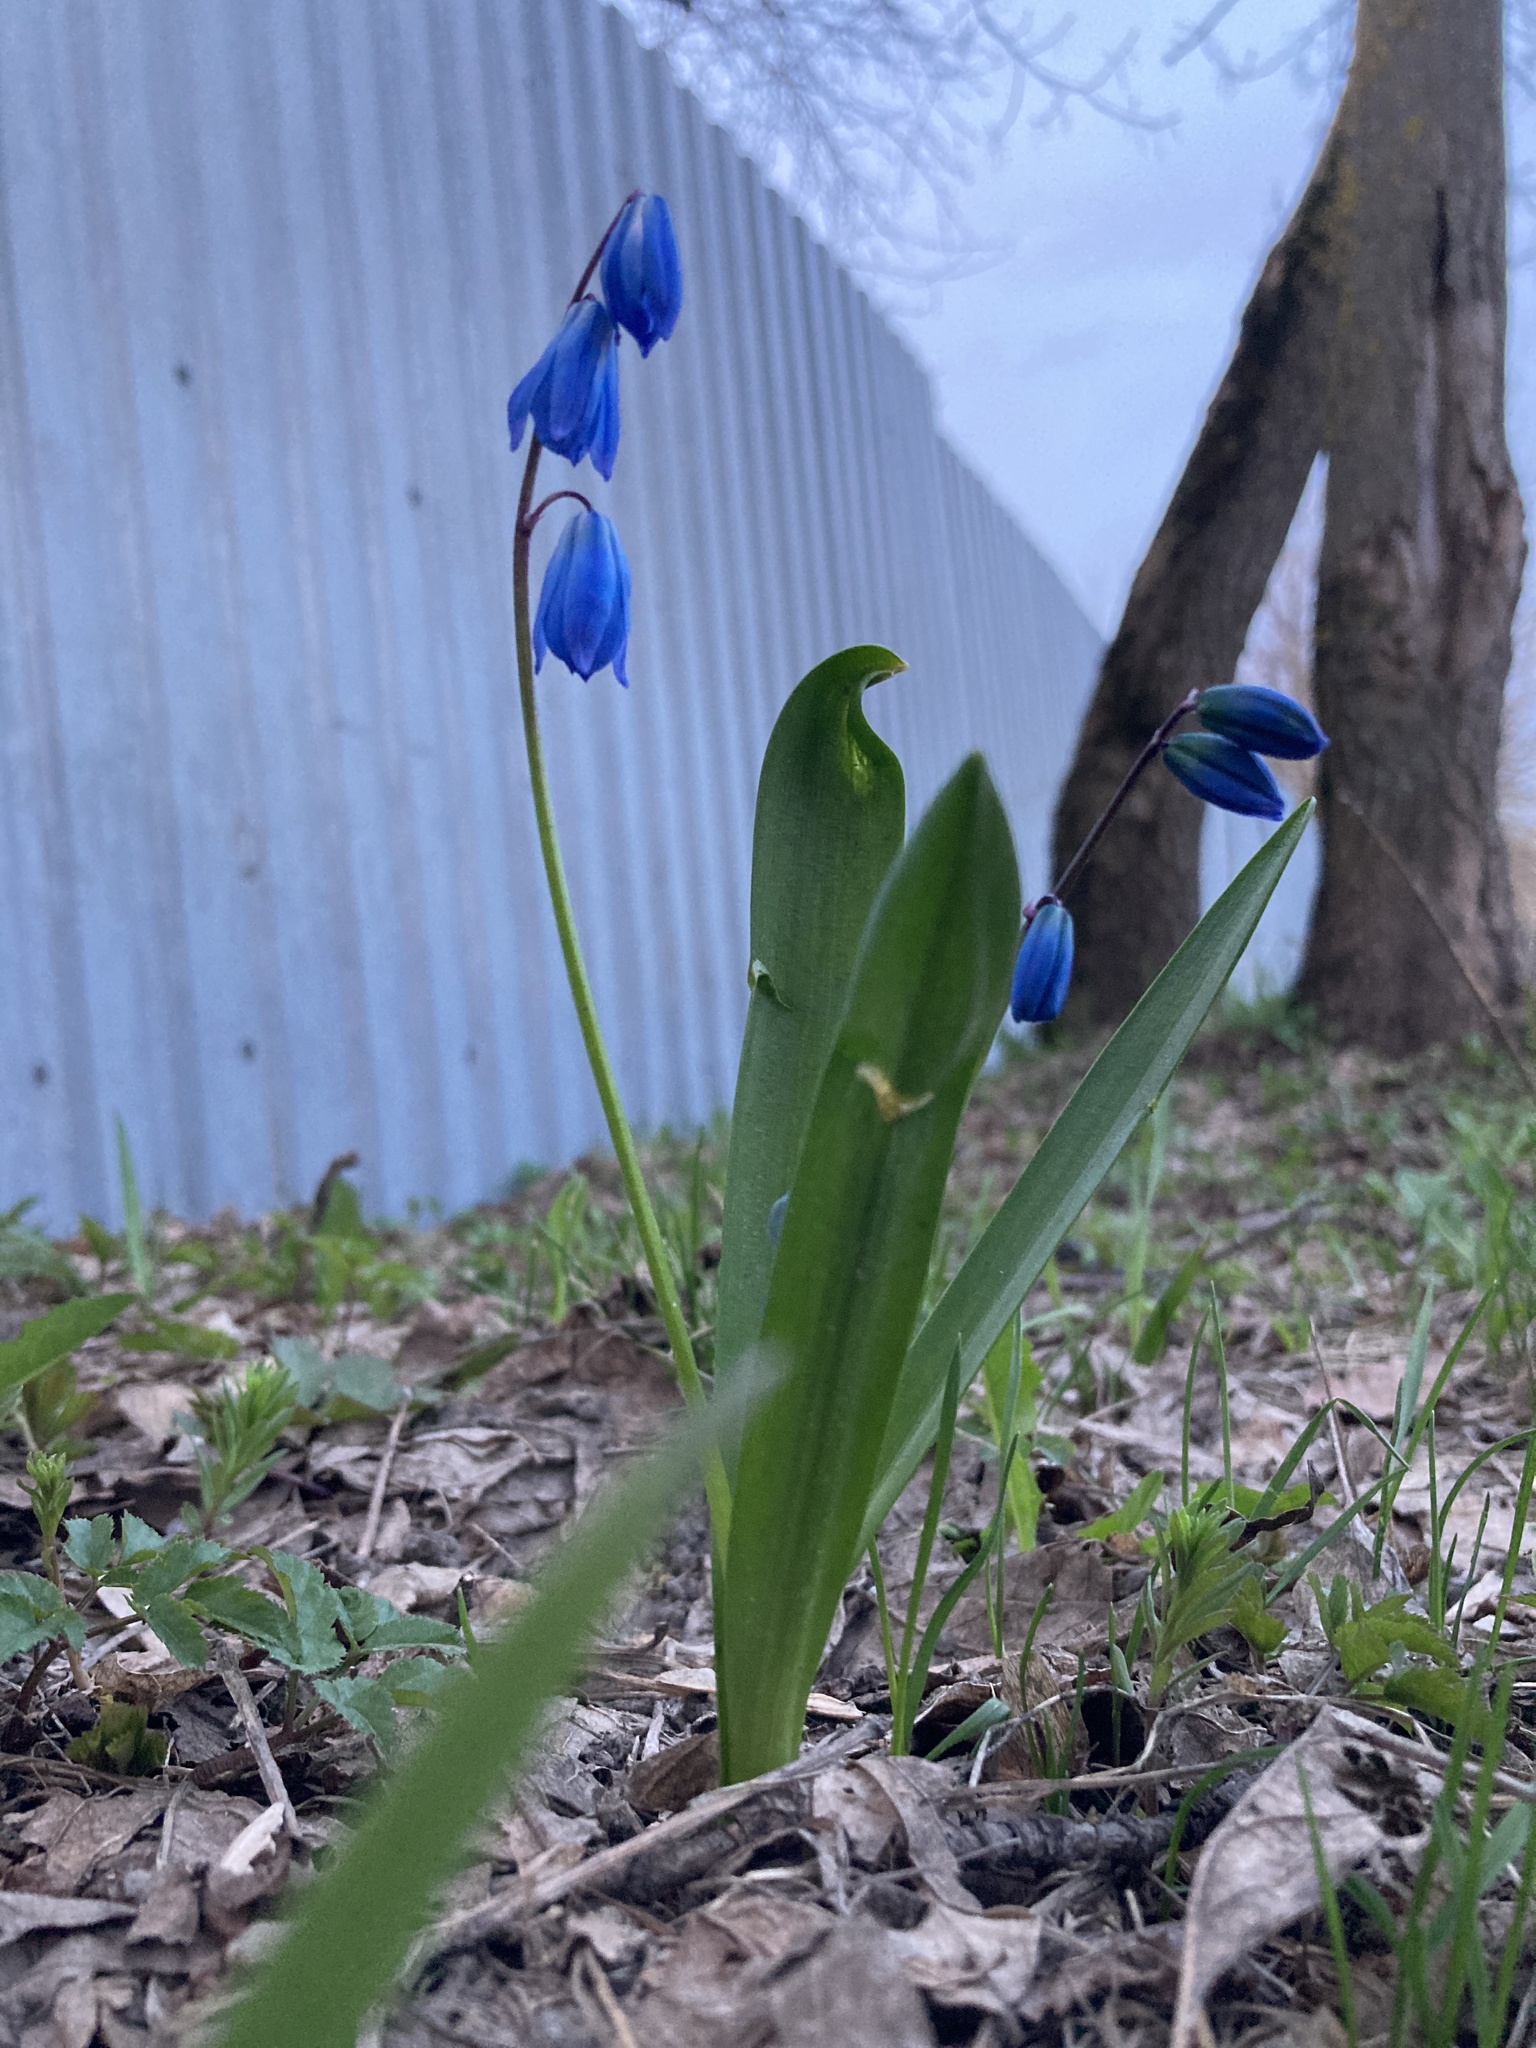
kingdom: Plantae
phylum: Tracheophyta
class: Liliopsida
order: Asparagales
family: Asparagaceae
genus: Scilla
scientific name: Scilla siberica
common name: Siberian squill
